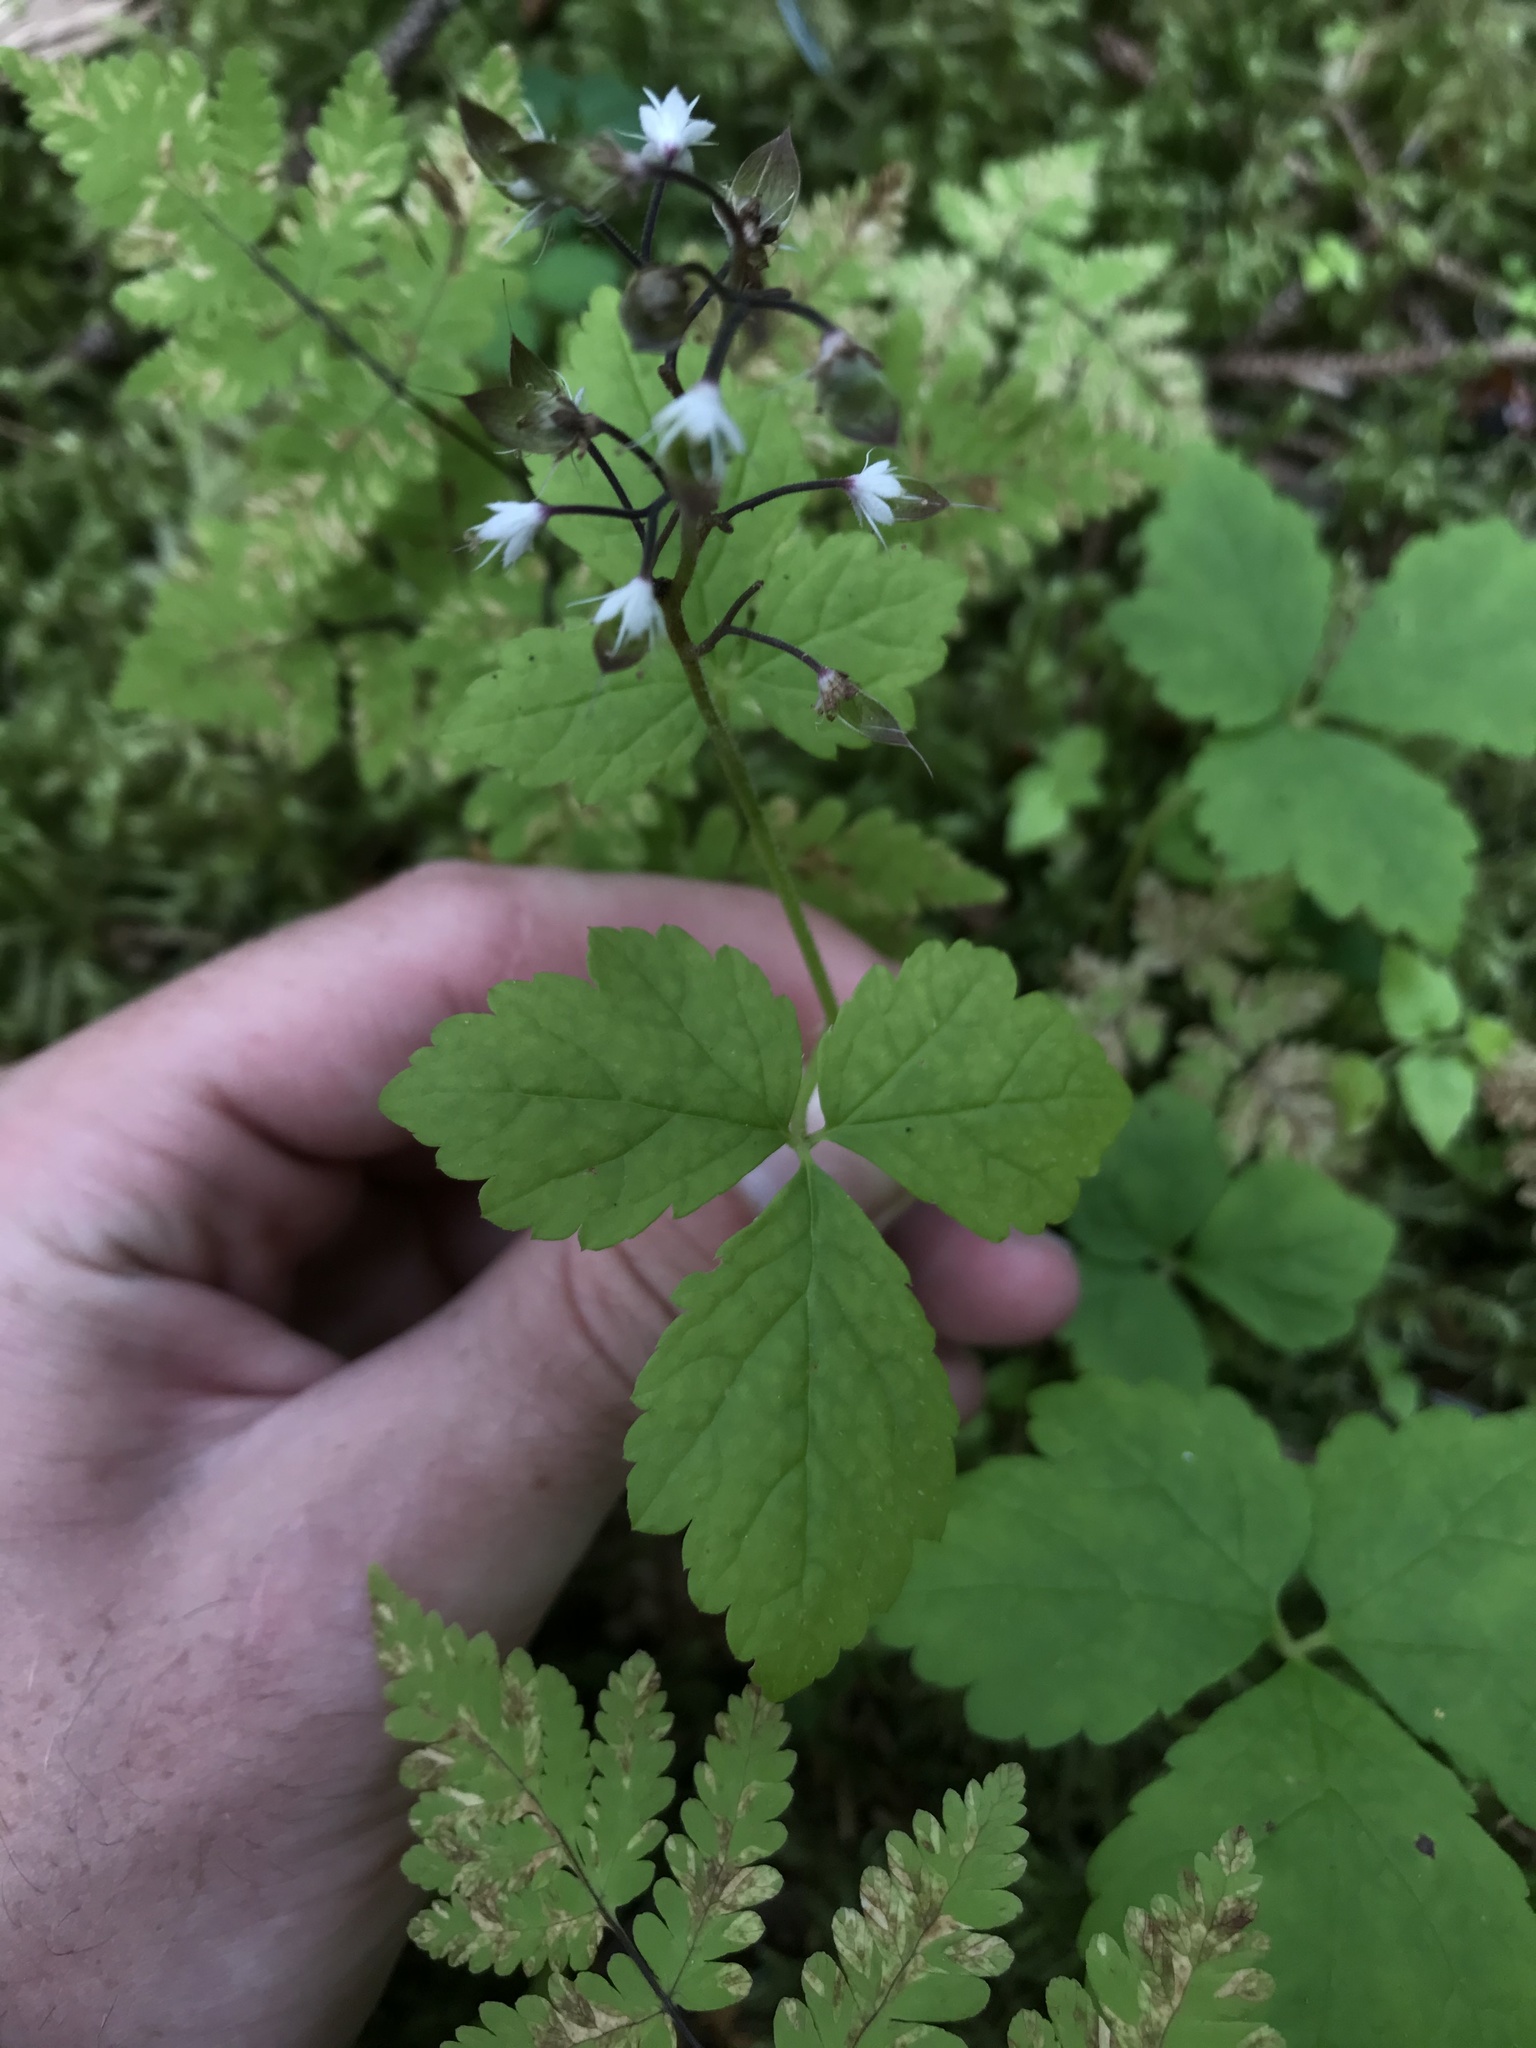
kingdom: Plantae
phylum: Tracheophyta
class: Magnoliopsida
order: Saxifragales
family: Saxifragaceae
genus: Tiarella
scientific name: Tiarella trifoliata
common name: Sugar-scoop
